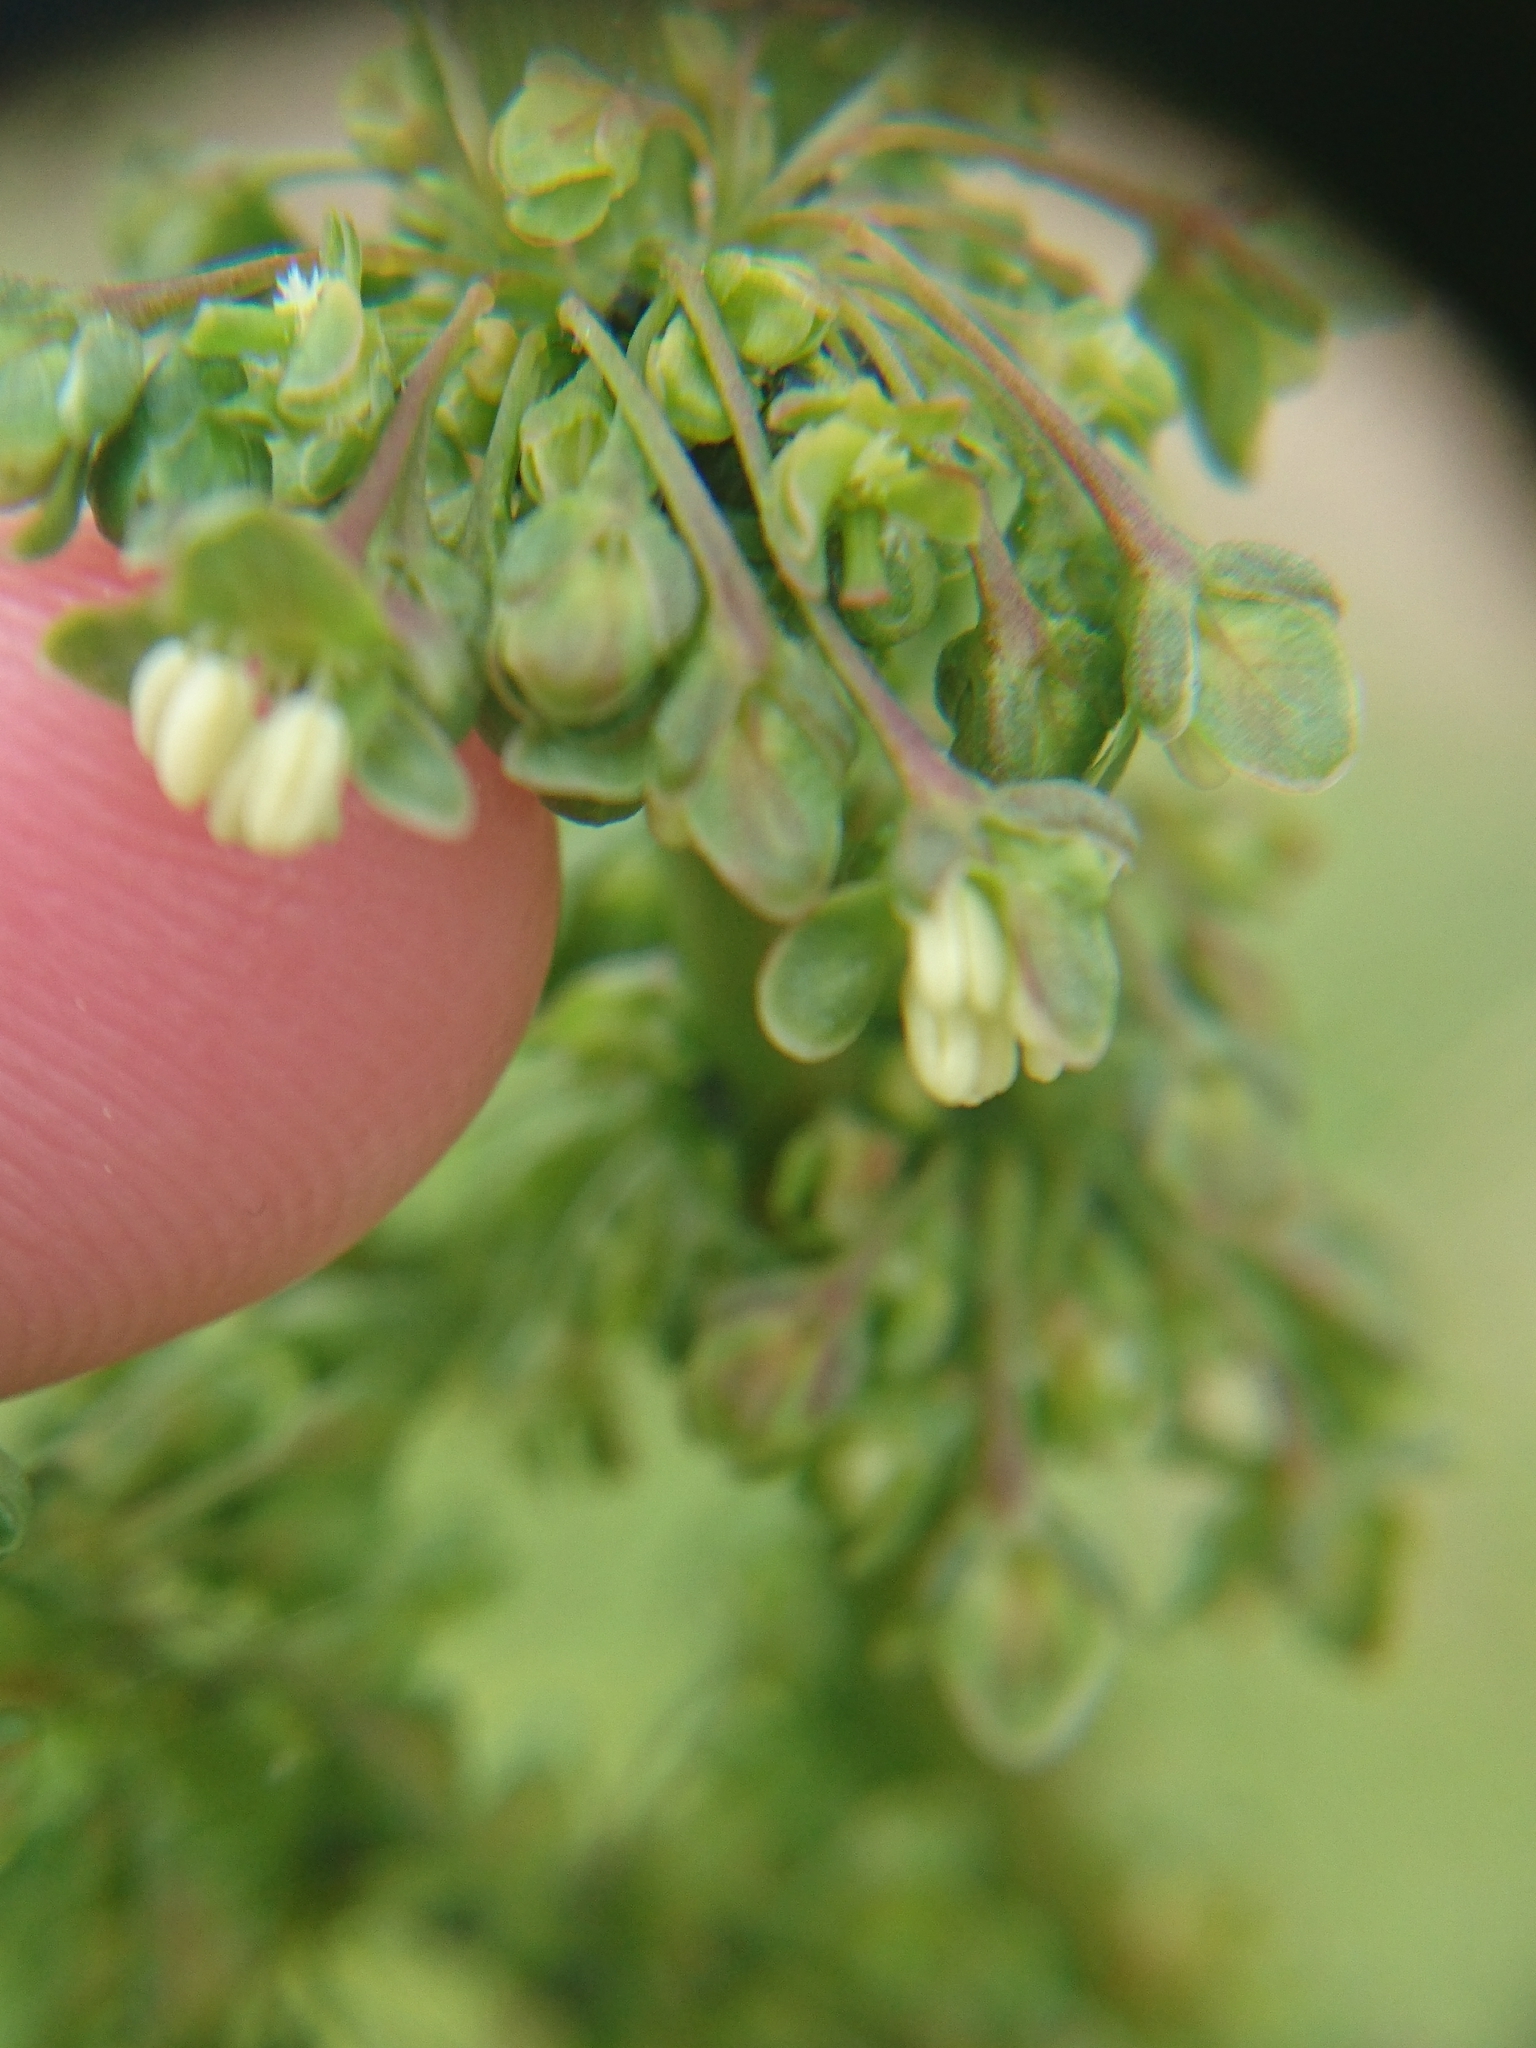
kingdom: Plantae
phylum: Tracheophyta
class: Magnoliopsida
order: Caryophyllales
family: Polygonaceae
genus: Rumex
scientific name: Rumex crispus
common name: Curled dock
